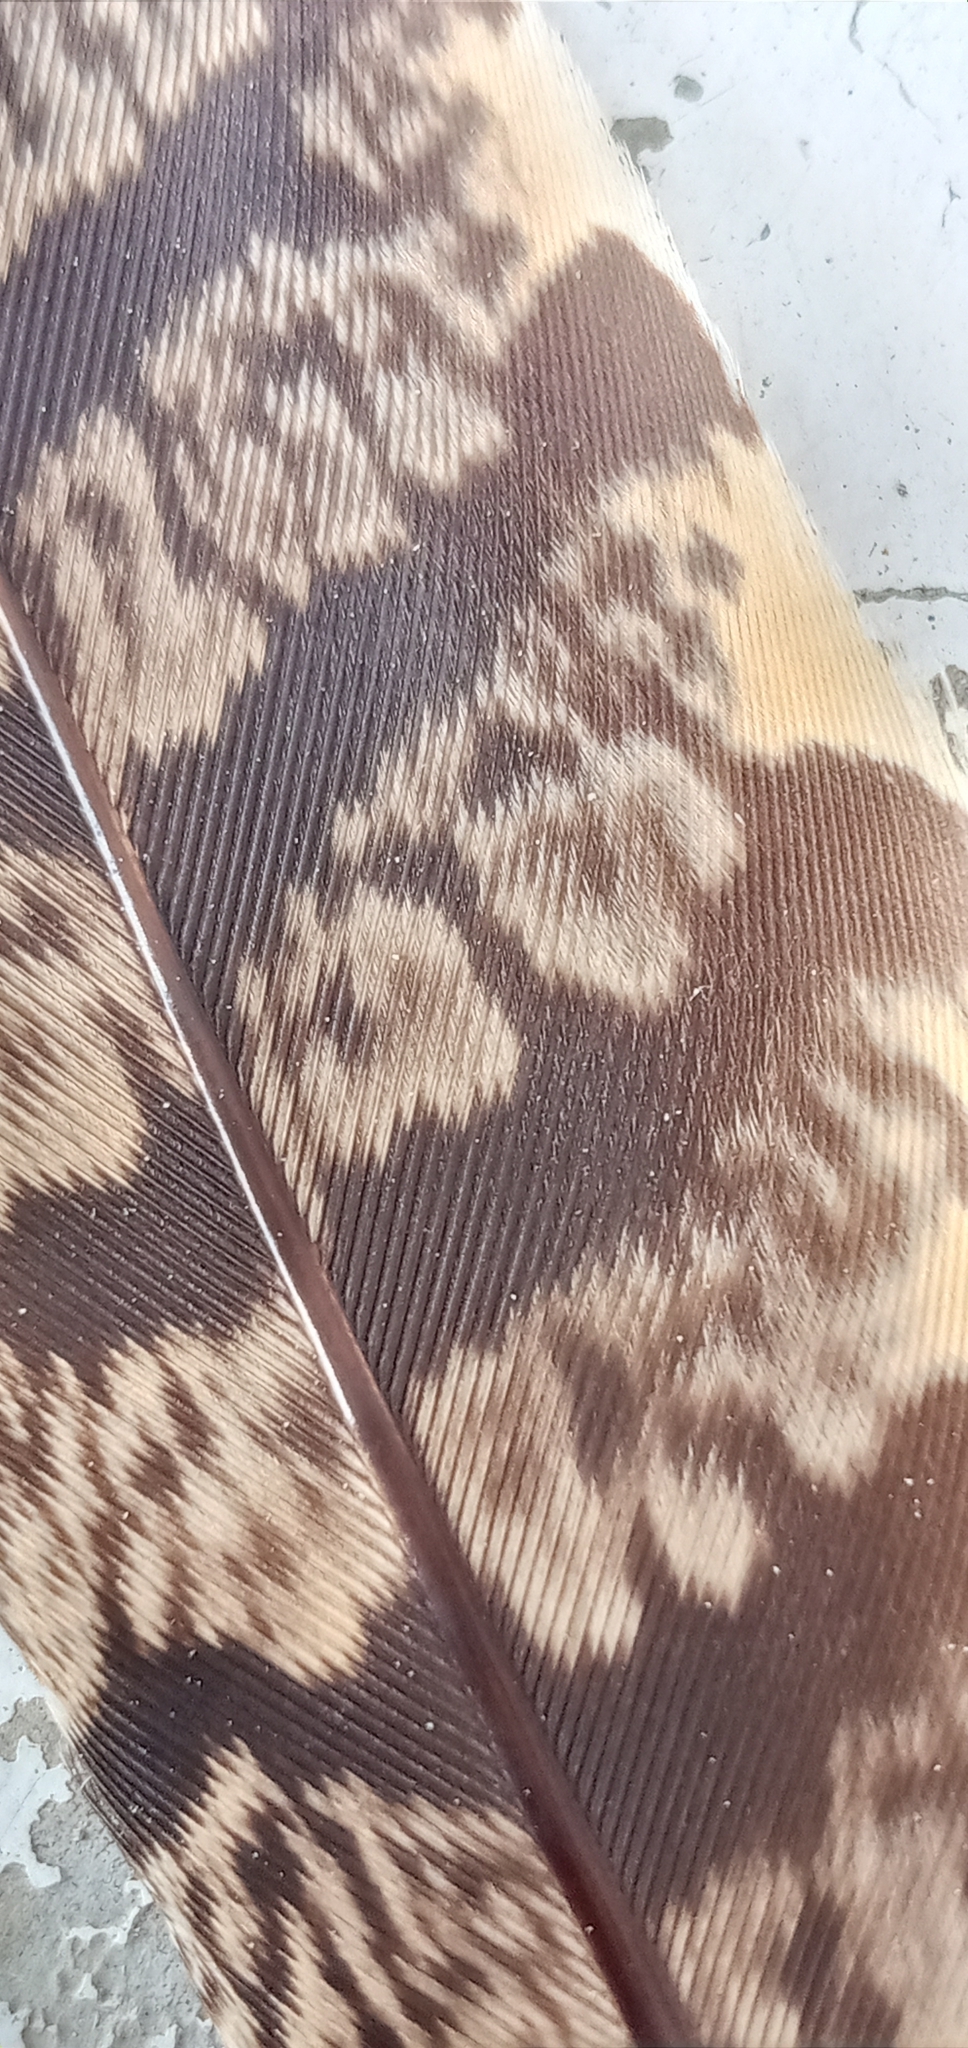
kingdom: Animalia
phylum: Chordata
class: Aves
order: Caprimulgiformes
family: Caprimulgidae
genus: Caprimulgus
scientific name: Caprimulgus affinis
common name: Savanna nightjar
